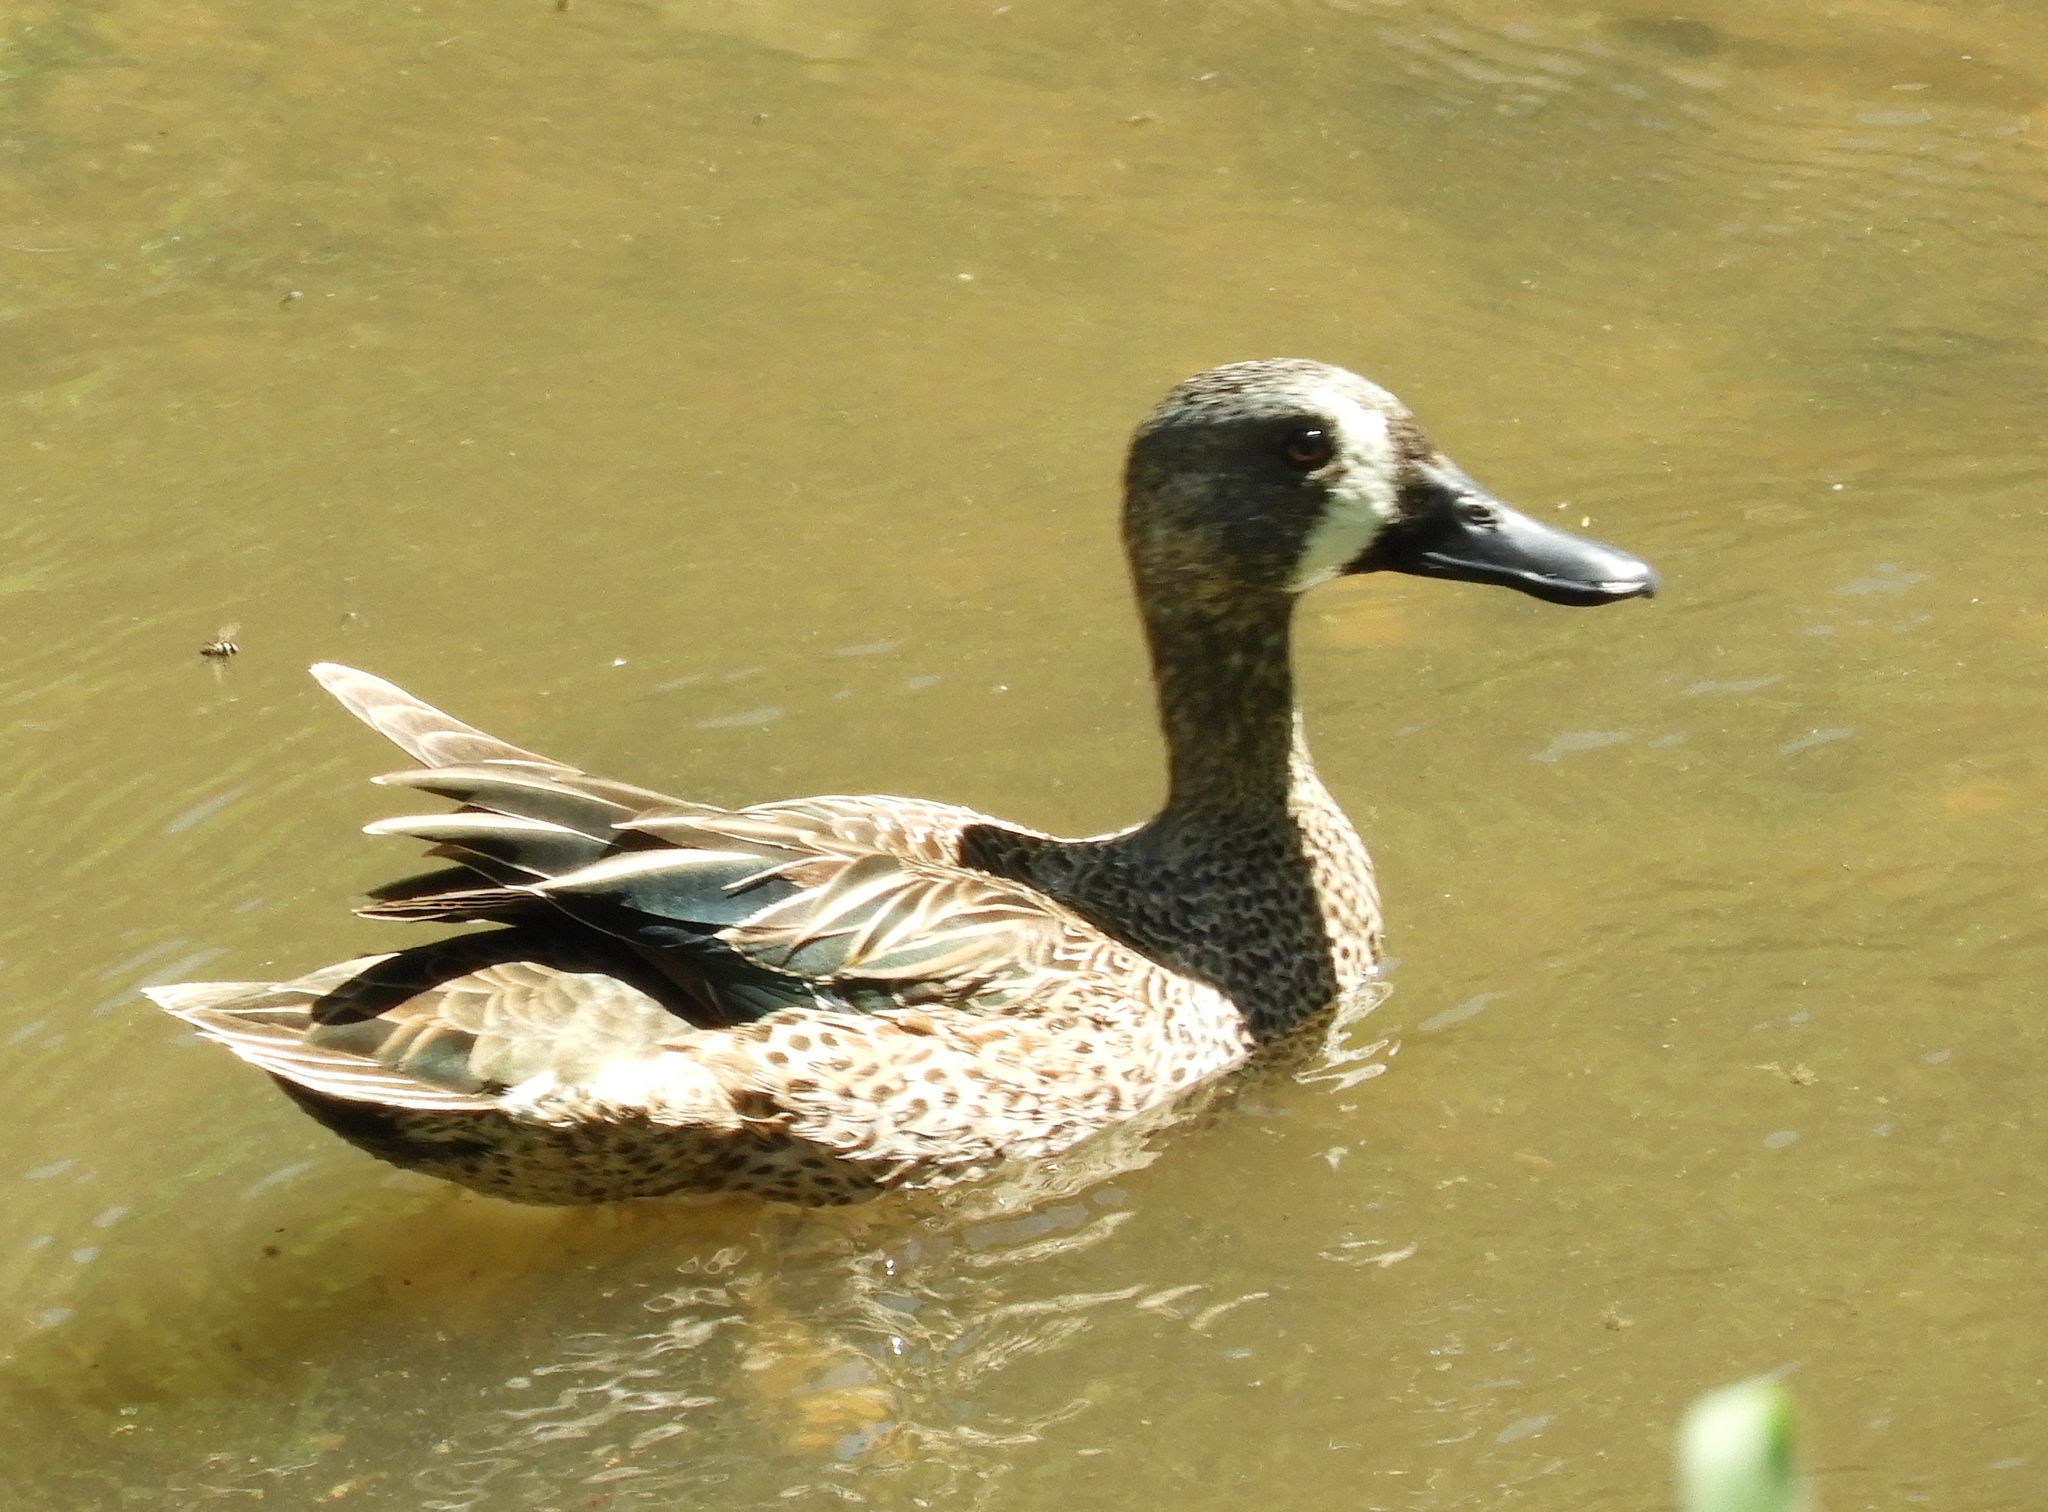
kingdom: Animalia
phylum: Chordata
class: Aves
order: Anseriformes
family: Anatidae
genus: Spatula
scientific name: Spatula discors
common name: Blue-winged teal
